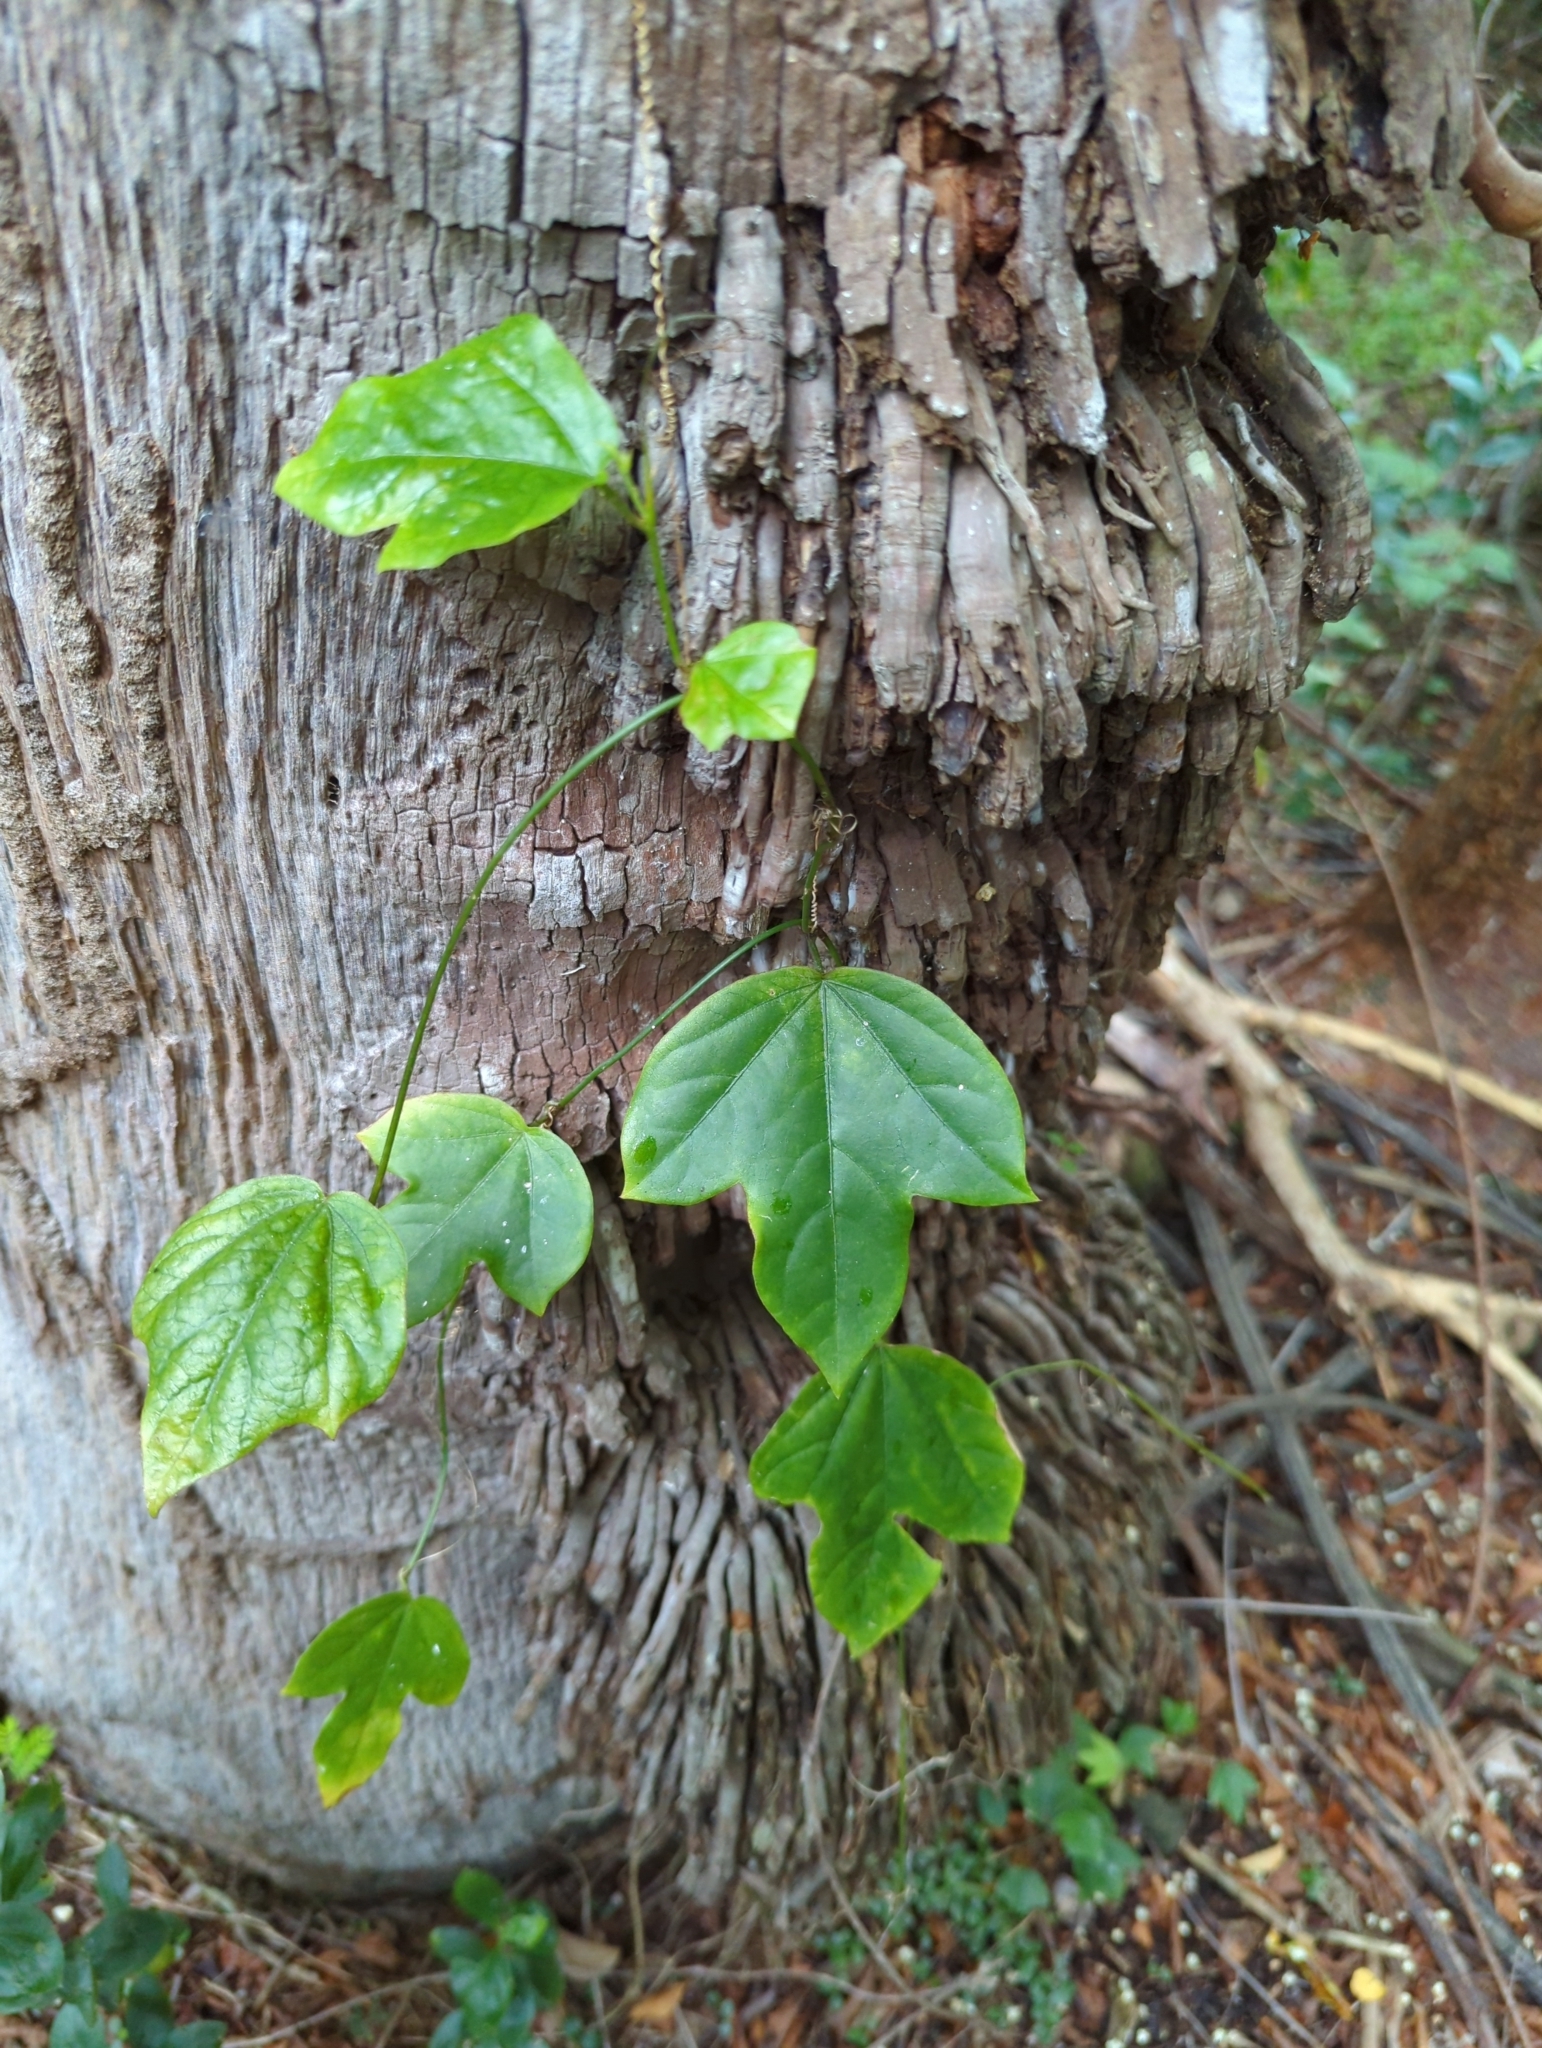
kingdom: Plantae
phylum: Tracheophyta
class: Magnoliopsida
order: Malpighiales
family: Passifloraceae
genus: Passiflora
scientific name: Passiflora suberosa
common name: Wild passionfruit
